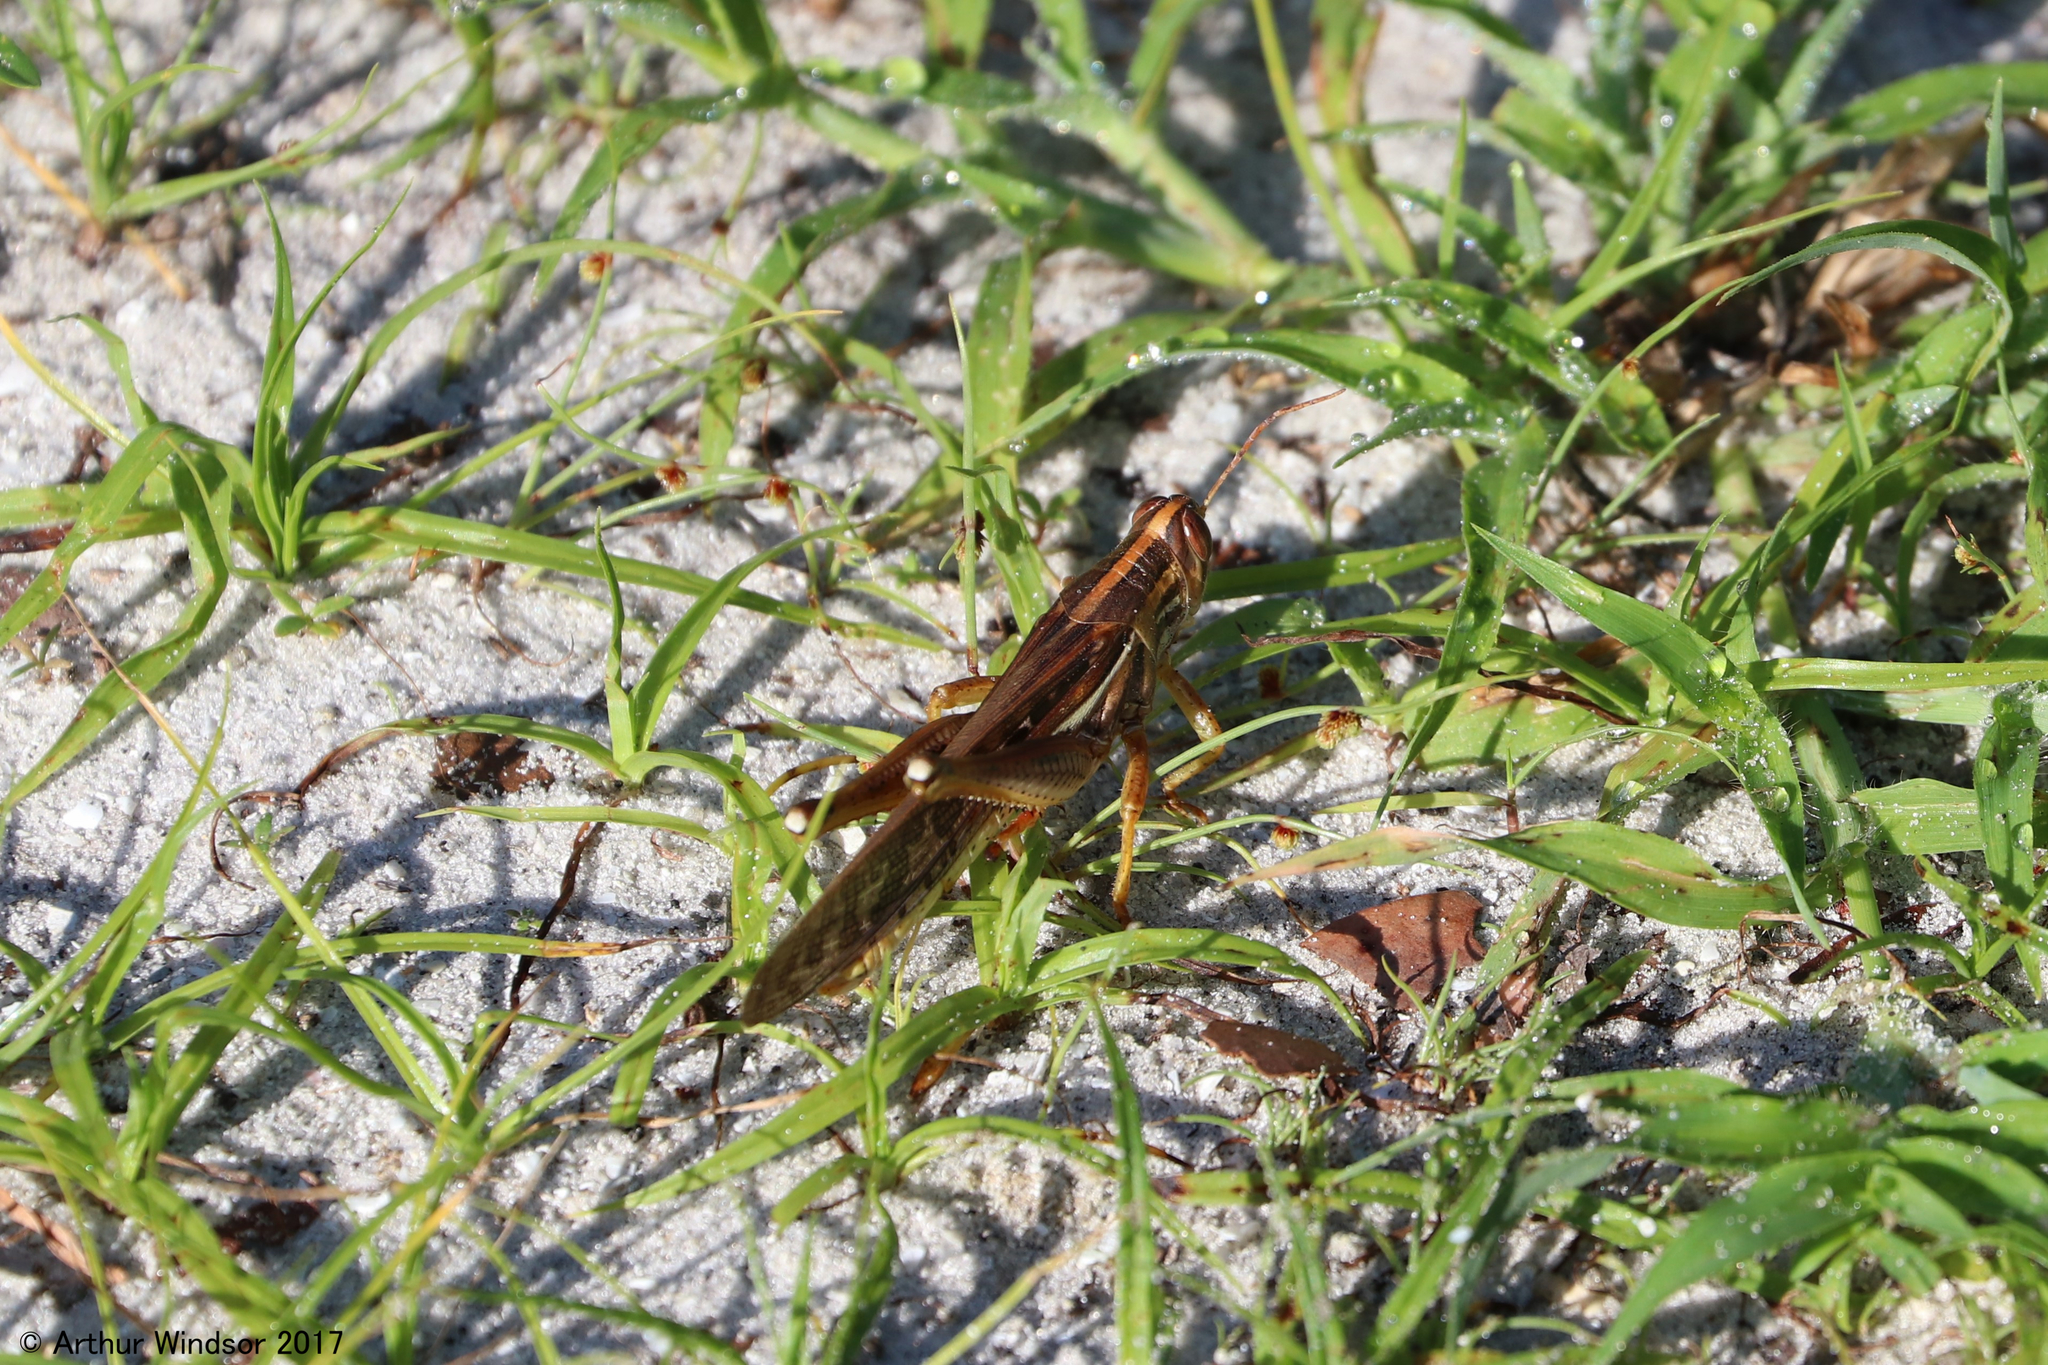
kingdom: Animalia
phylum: Arthropoda
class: Insecta
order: Orthoptera
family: Acrididae
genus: Schistocerca
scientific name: Schistocerca americana
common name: American bird locust
